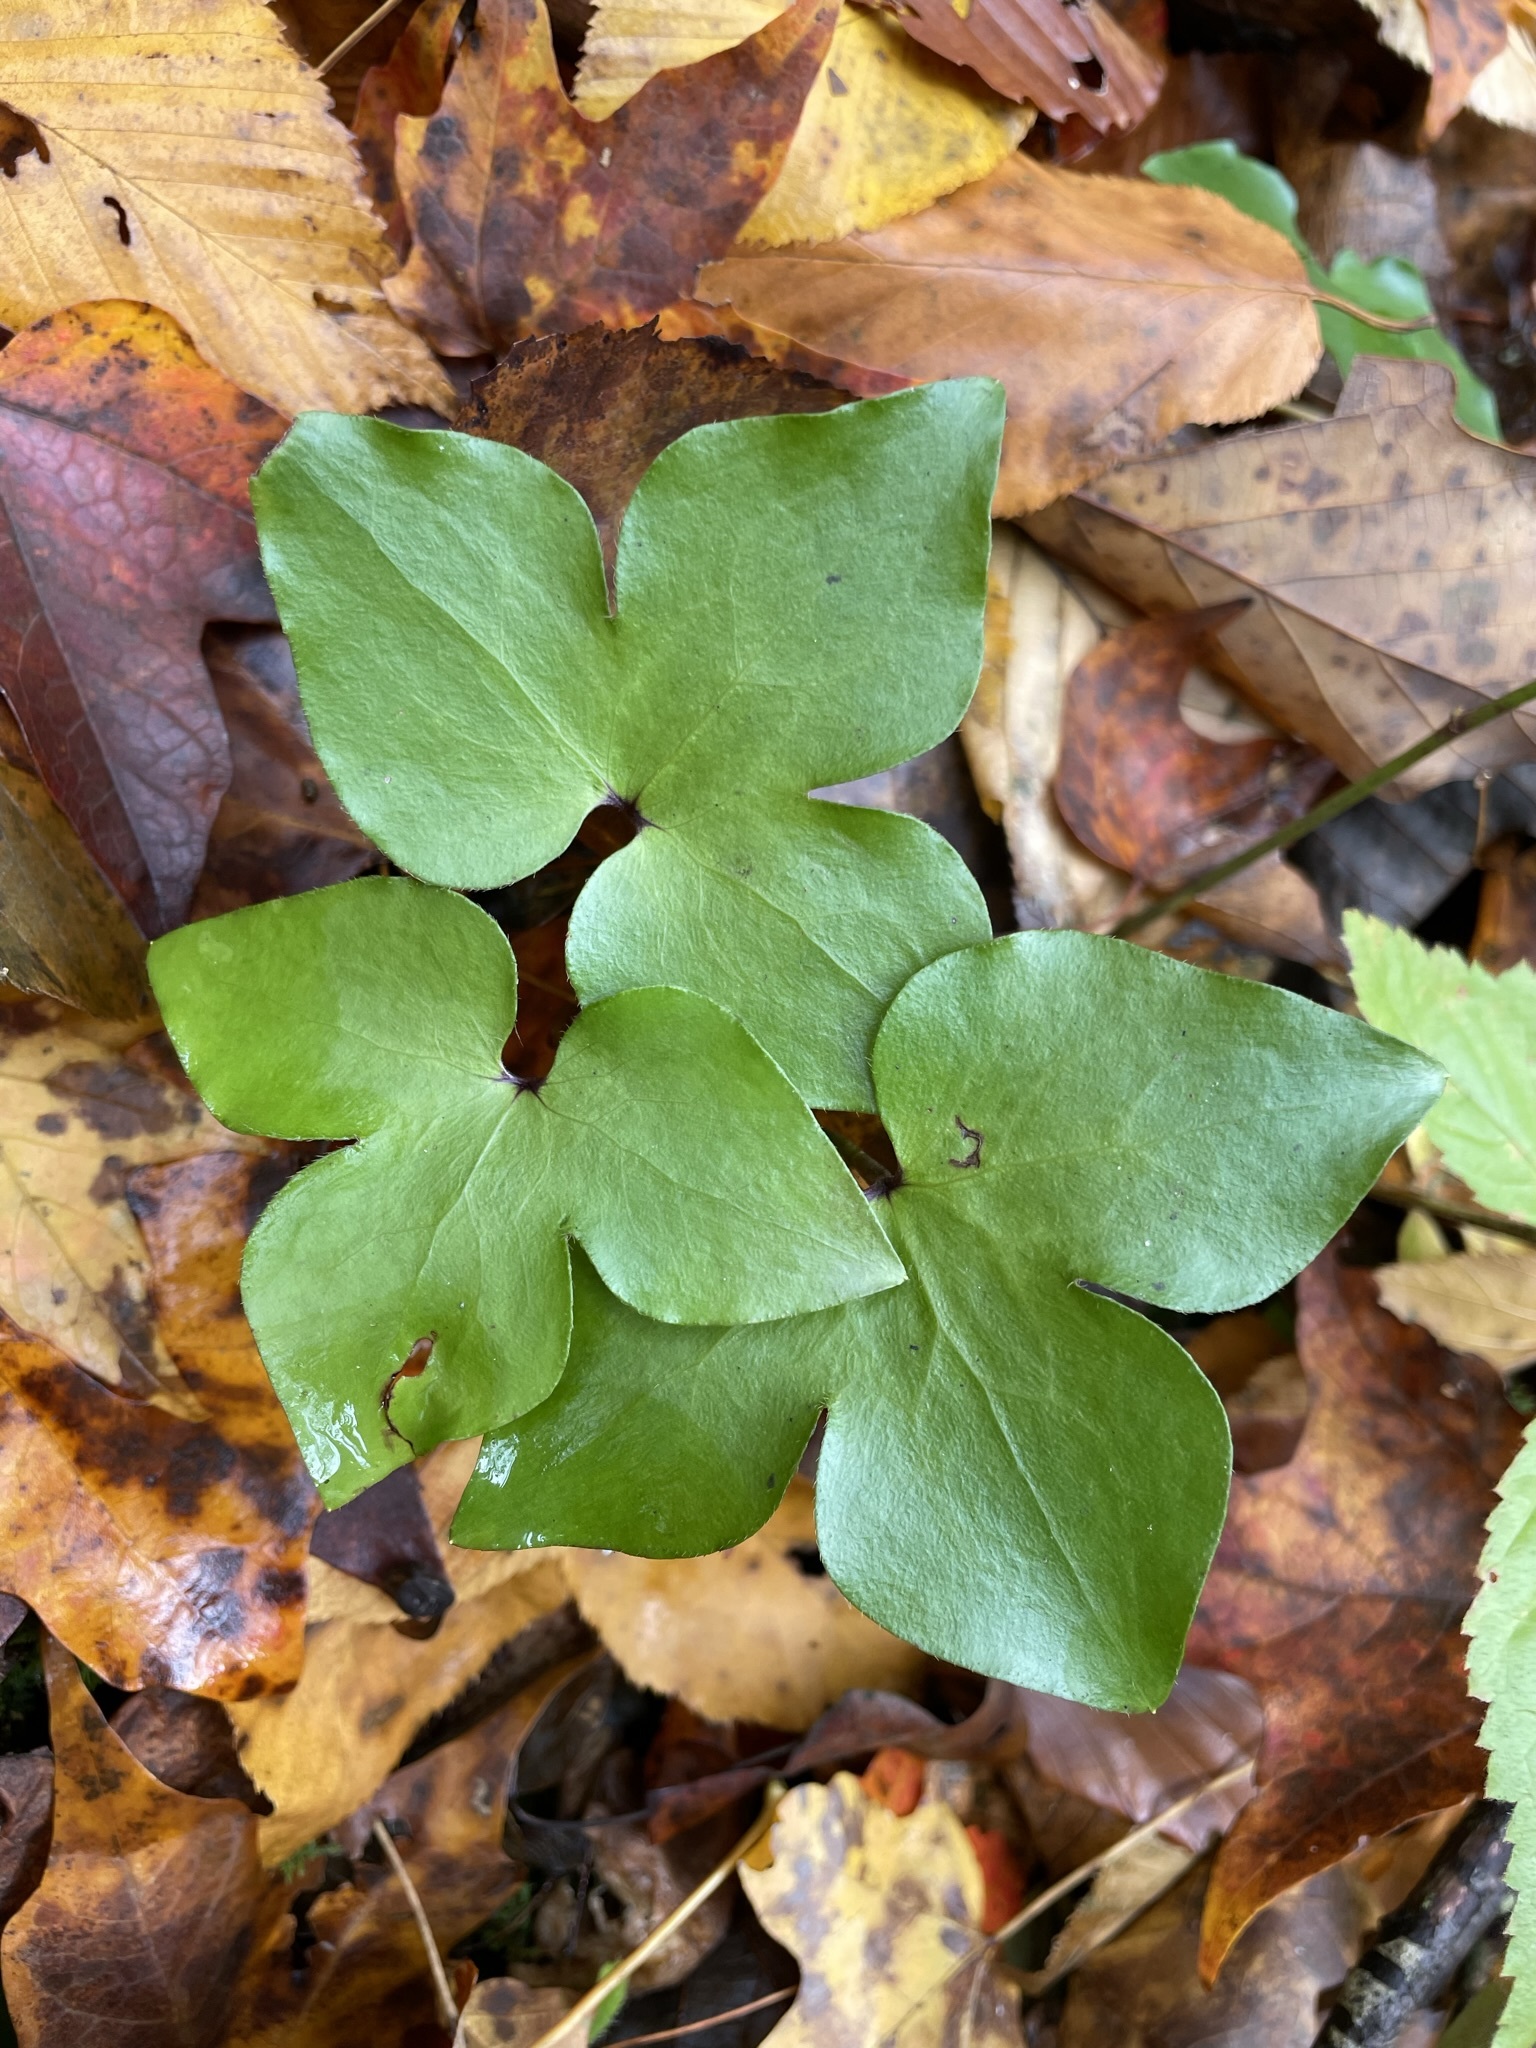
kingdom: Plantae
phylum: Tracheophyta
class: Magnoliopsida
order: Ranunculales
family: Ranunculaceae
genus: Hepatica
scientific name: Hepatica acutiloba
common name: Sharp-lobed hepatica
